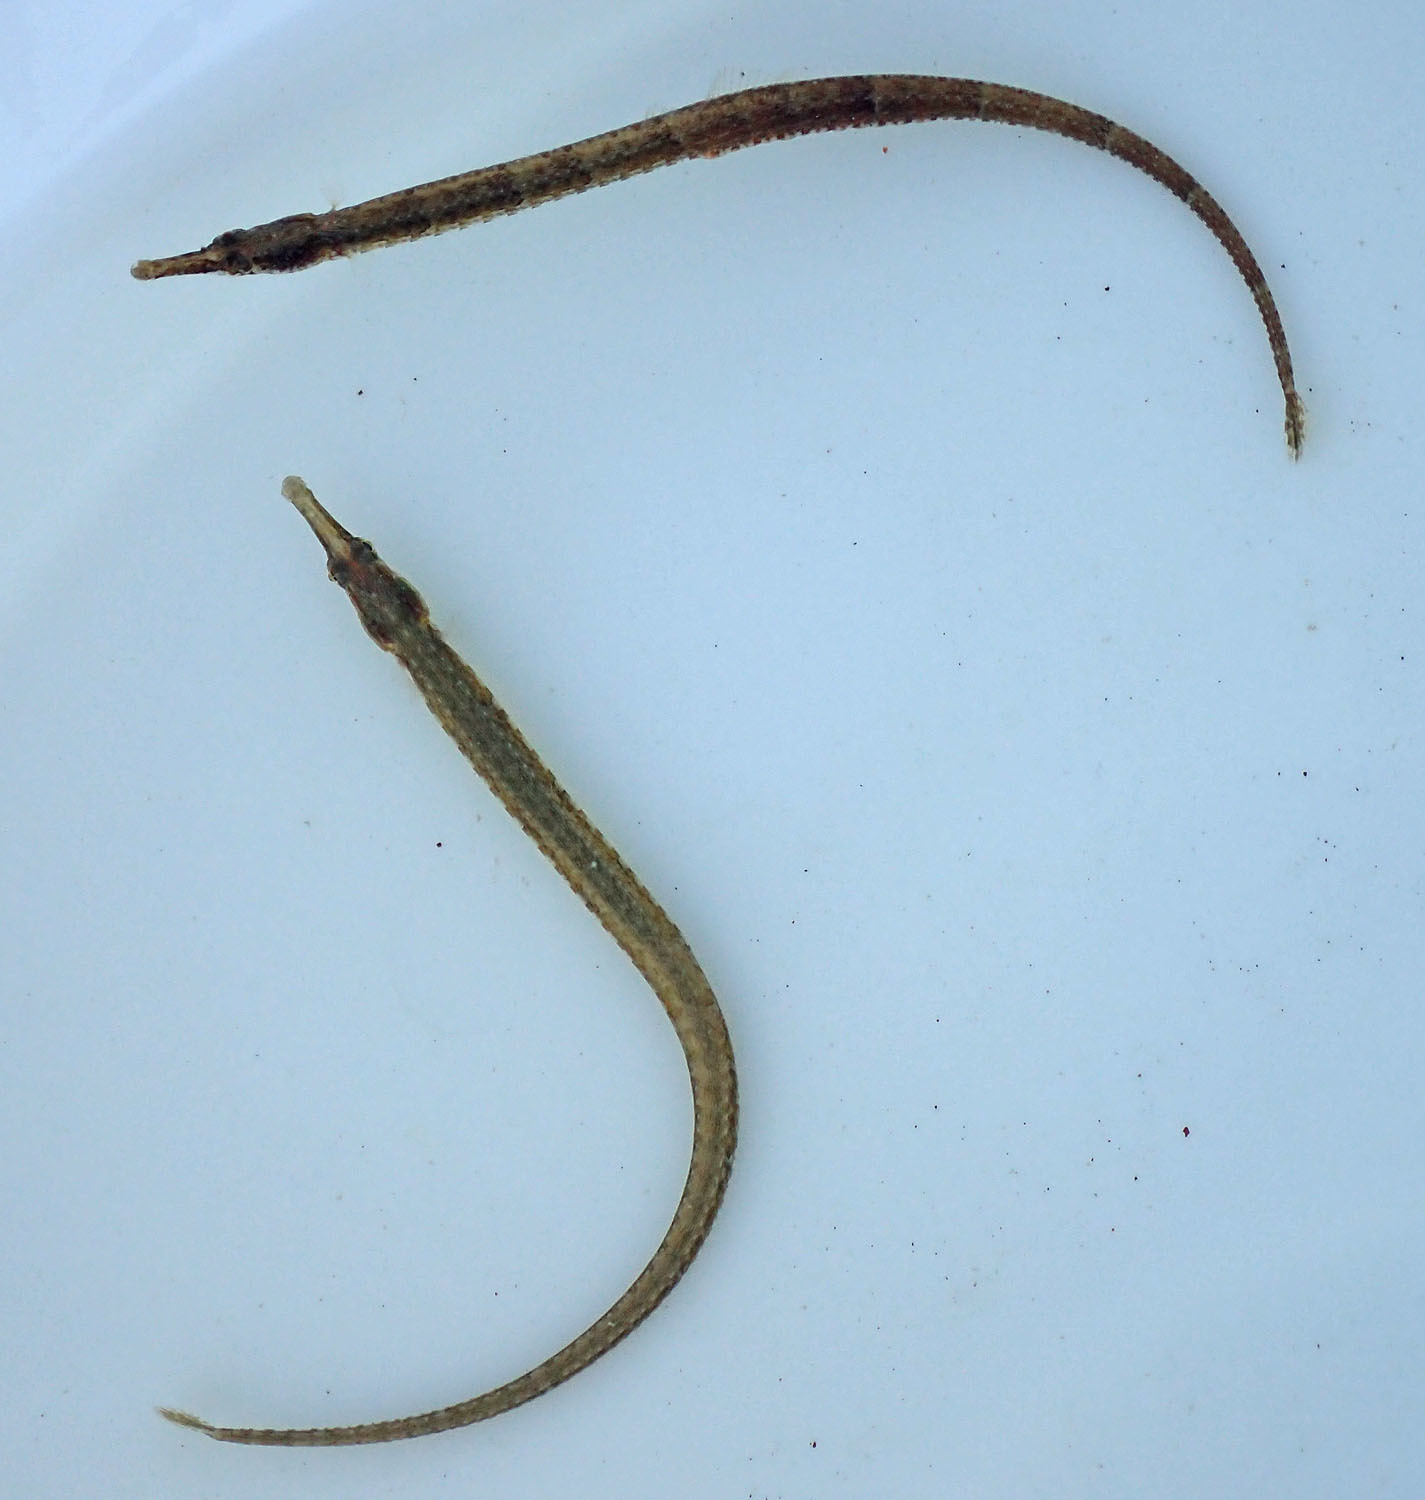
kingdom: Animalia
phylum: Chordata
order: Syngnathiformes
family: Syngnathidae
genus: Syngnathus
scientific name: Syngnathus scovelli
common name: American gulf pipefish
